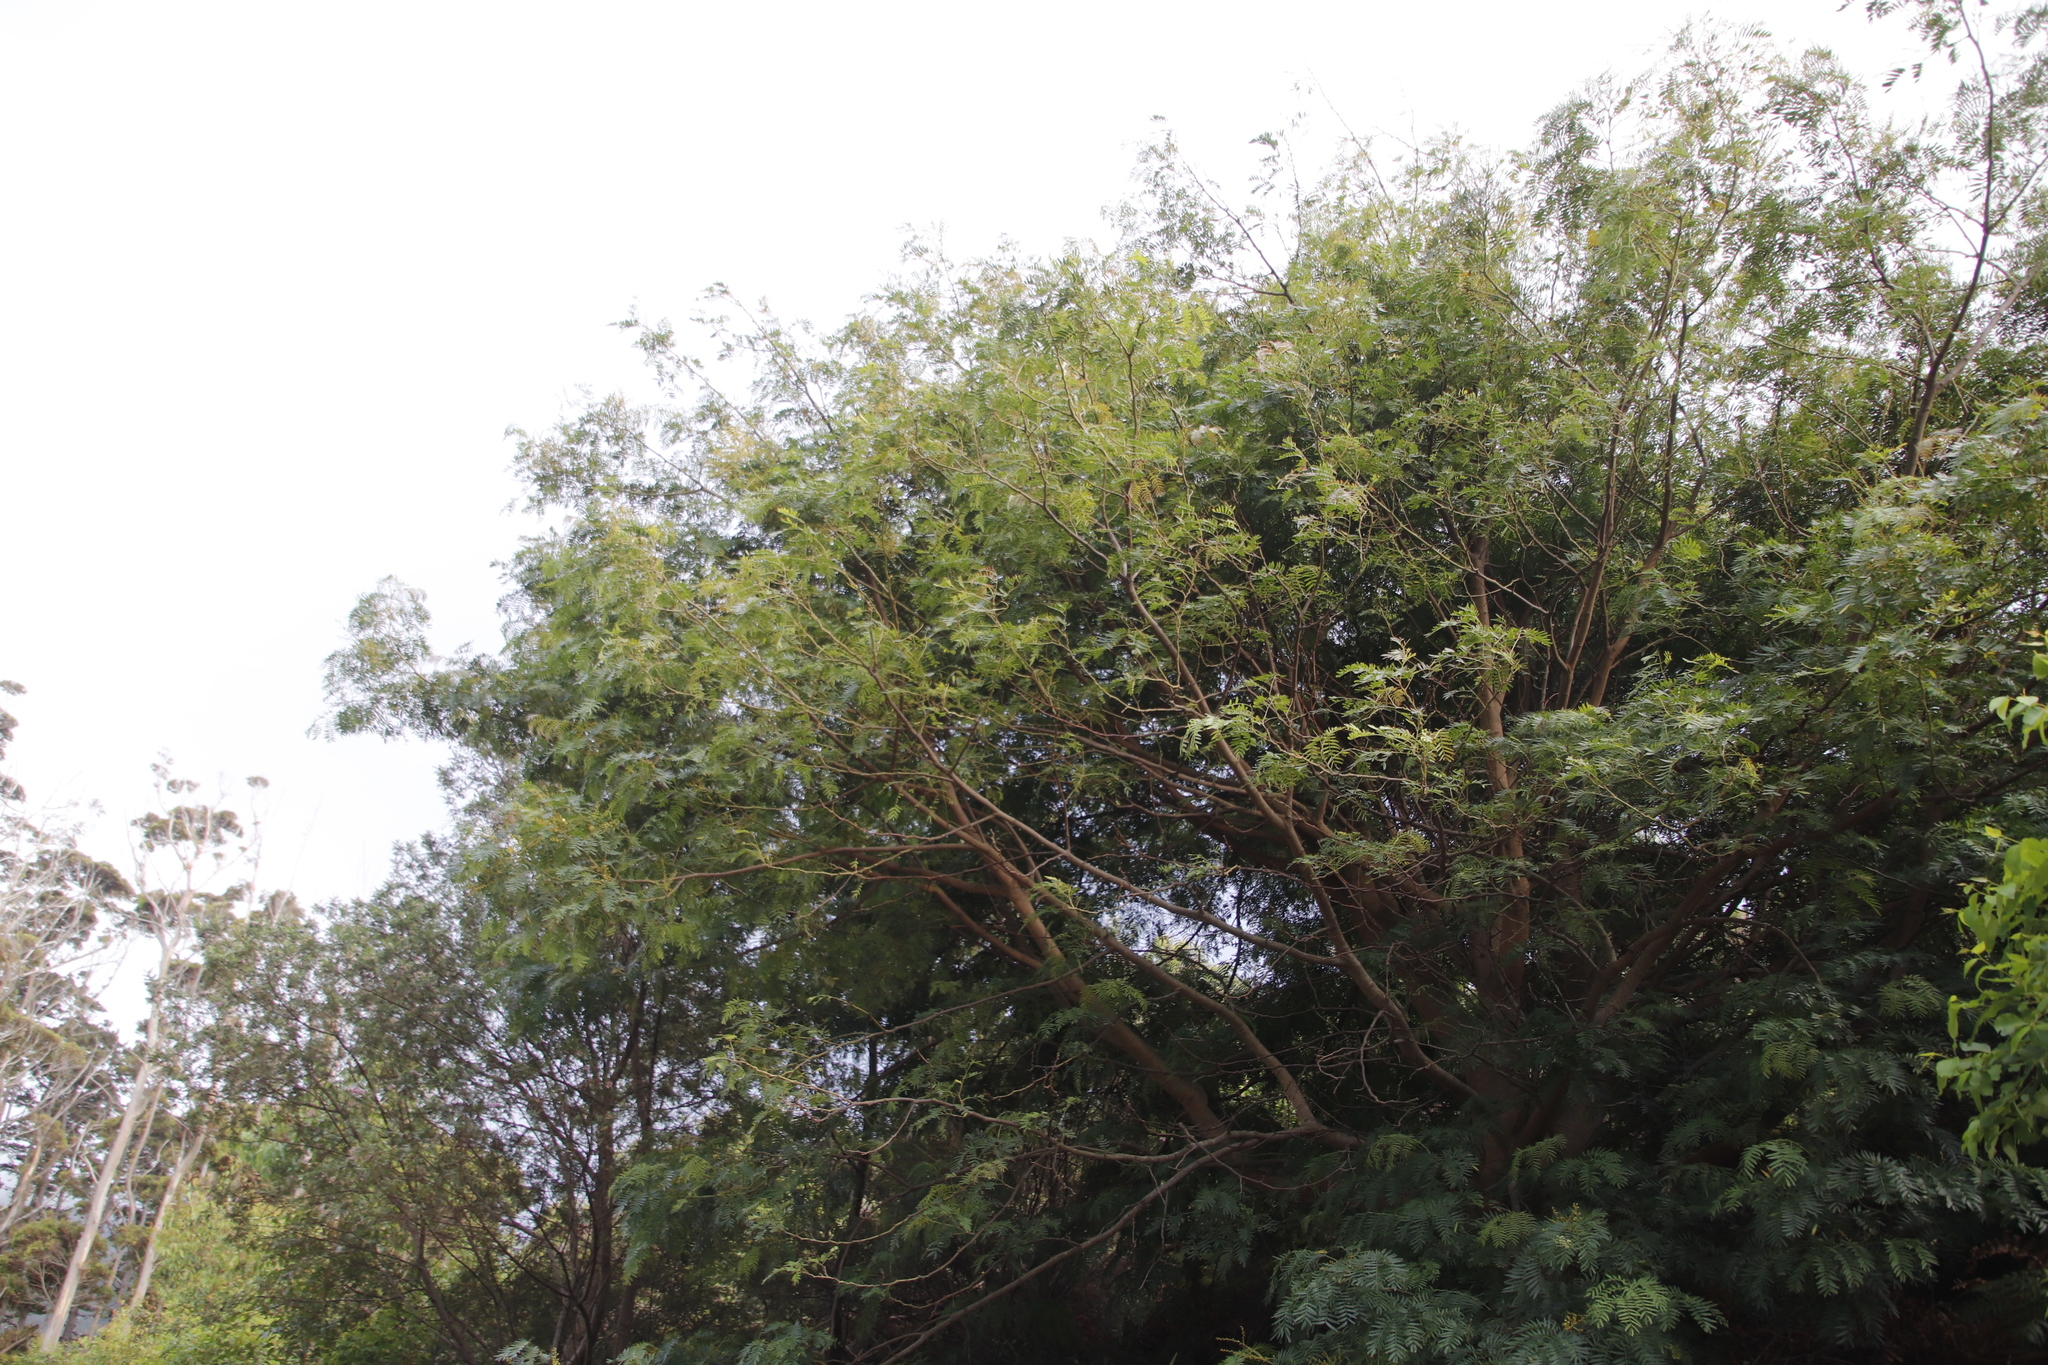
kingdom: Plantae
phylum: Tracheophyta
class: Magnoliopsida
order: Fabales
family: Fabaceae
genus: Acacia
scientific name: Acacia elata
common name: Cedar wattle
